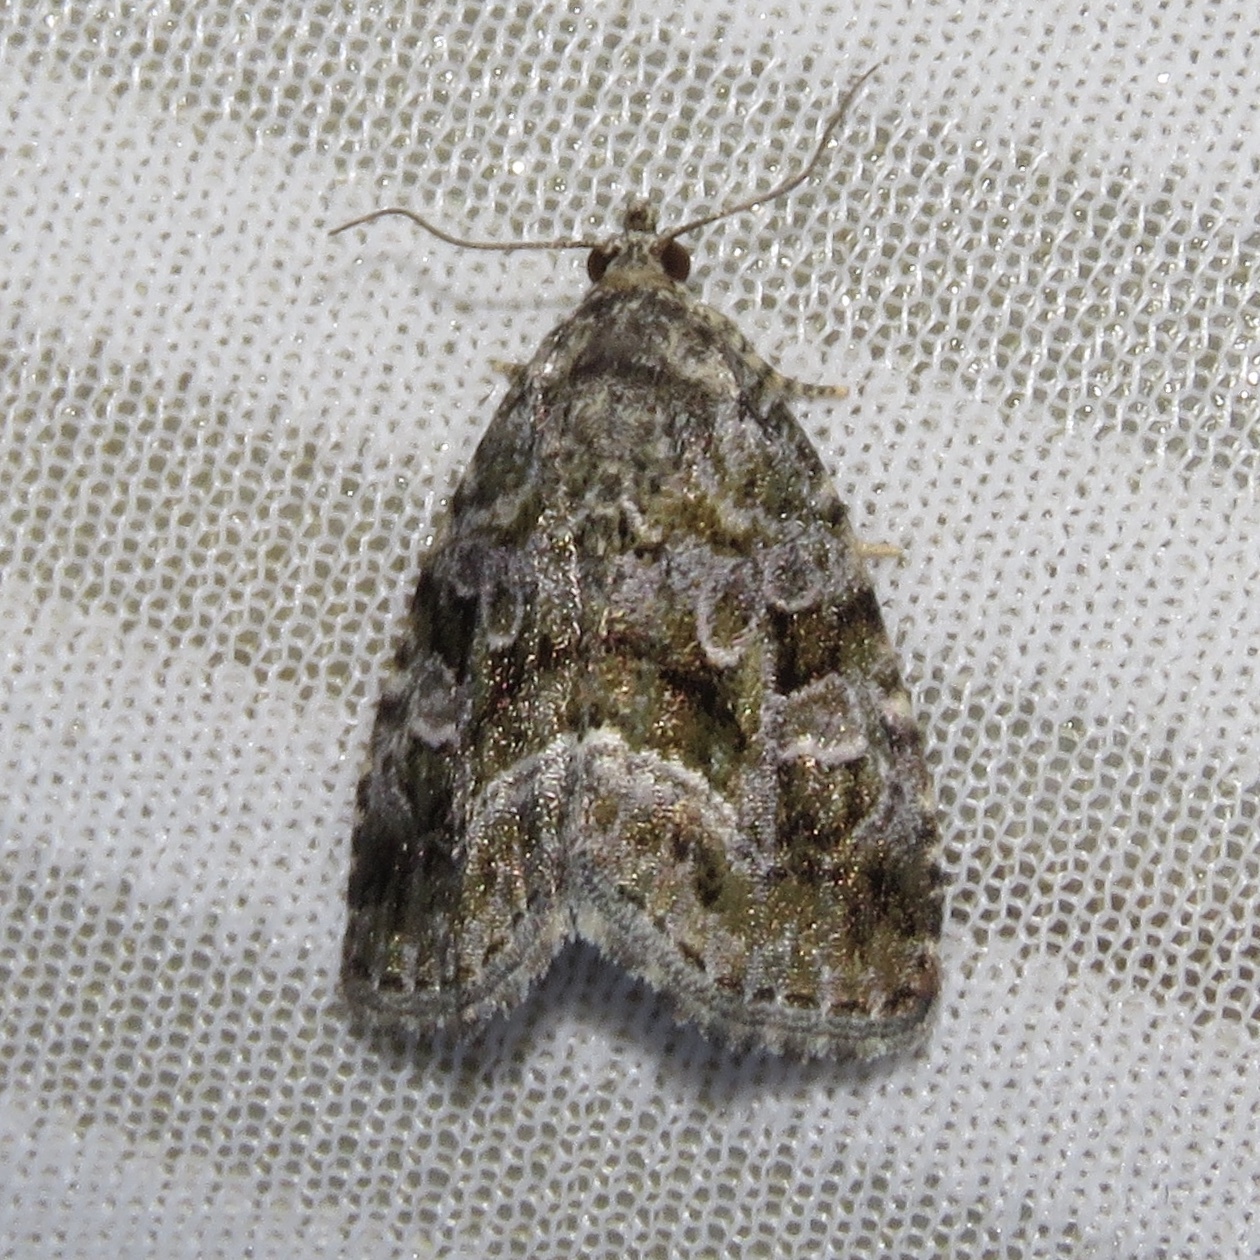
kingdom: Animalia
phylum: Arthropoda
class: Insecta
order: Lepidoptera
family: Noctuidae
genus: Protodeltote
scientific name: Protodeltote muscosula
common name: Large mossy glyph
